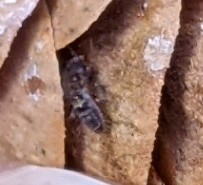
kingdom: Animalia
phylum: Arthropoda
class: Collembola
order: Entomobryomorpha
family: Orchesellidae
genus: Orchesella
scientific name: Orchesella cincta
